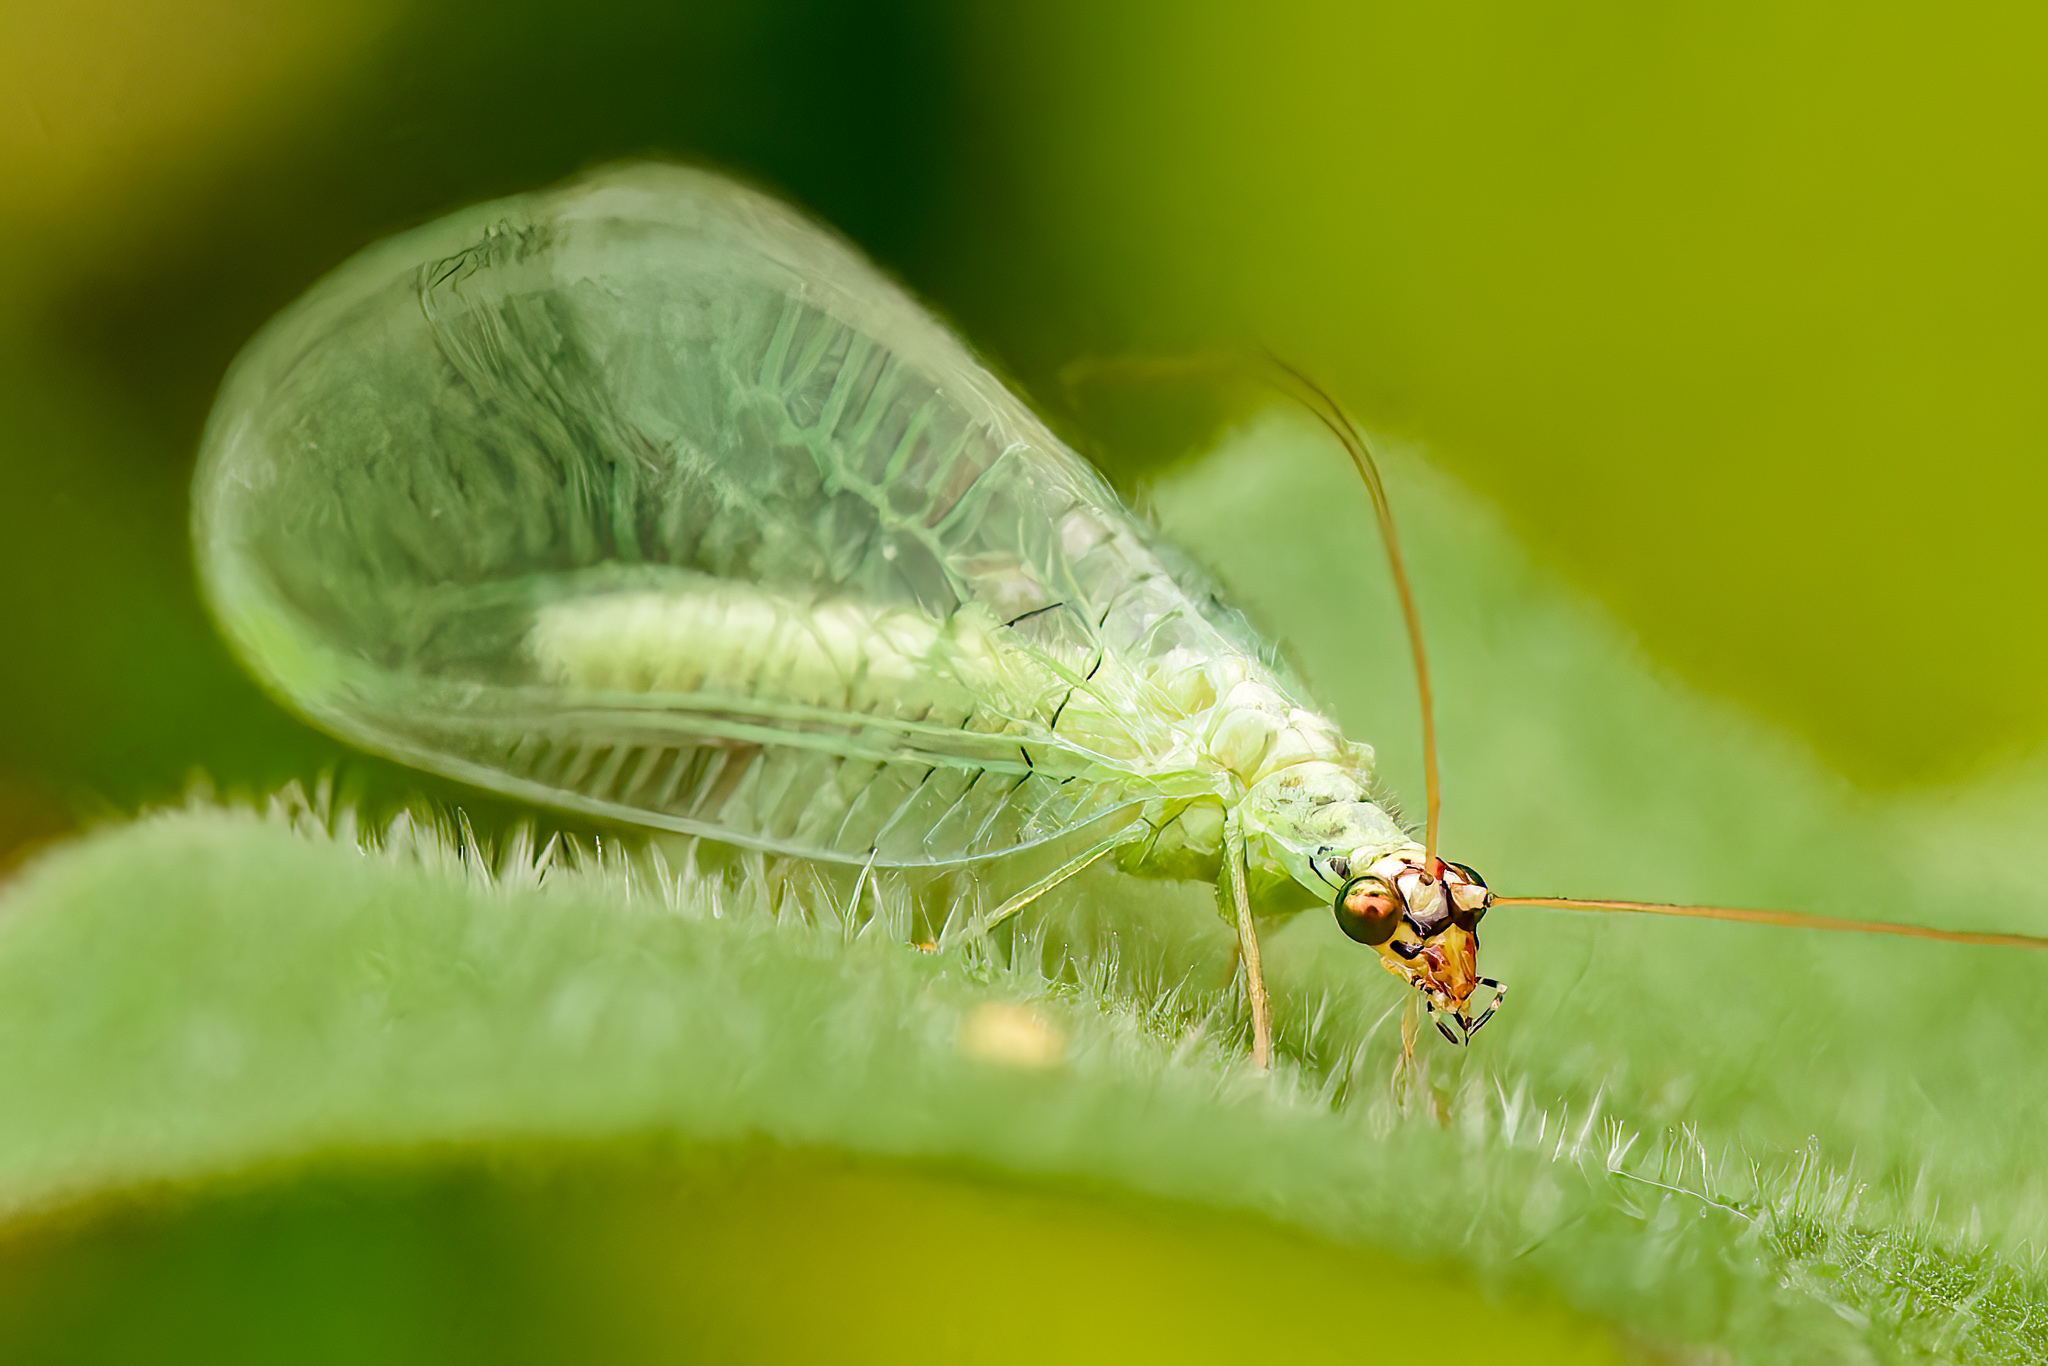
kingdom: Animalia
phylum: Arthropoda
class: Insecta
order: Neuroptera
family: Chrysopidae
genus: Chrysopa
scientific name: Chrysopa oculata
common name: Golden-eyed lacewing
